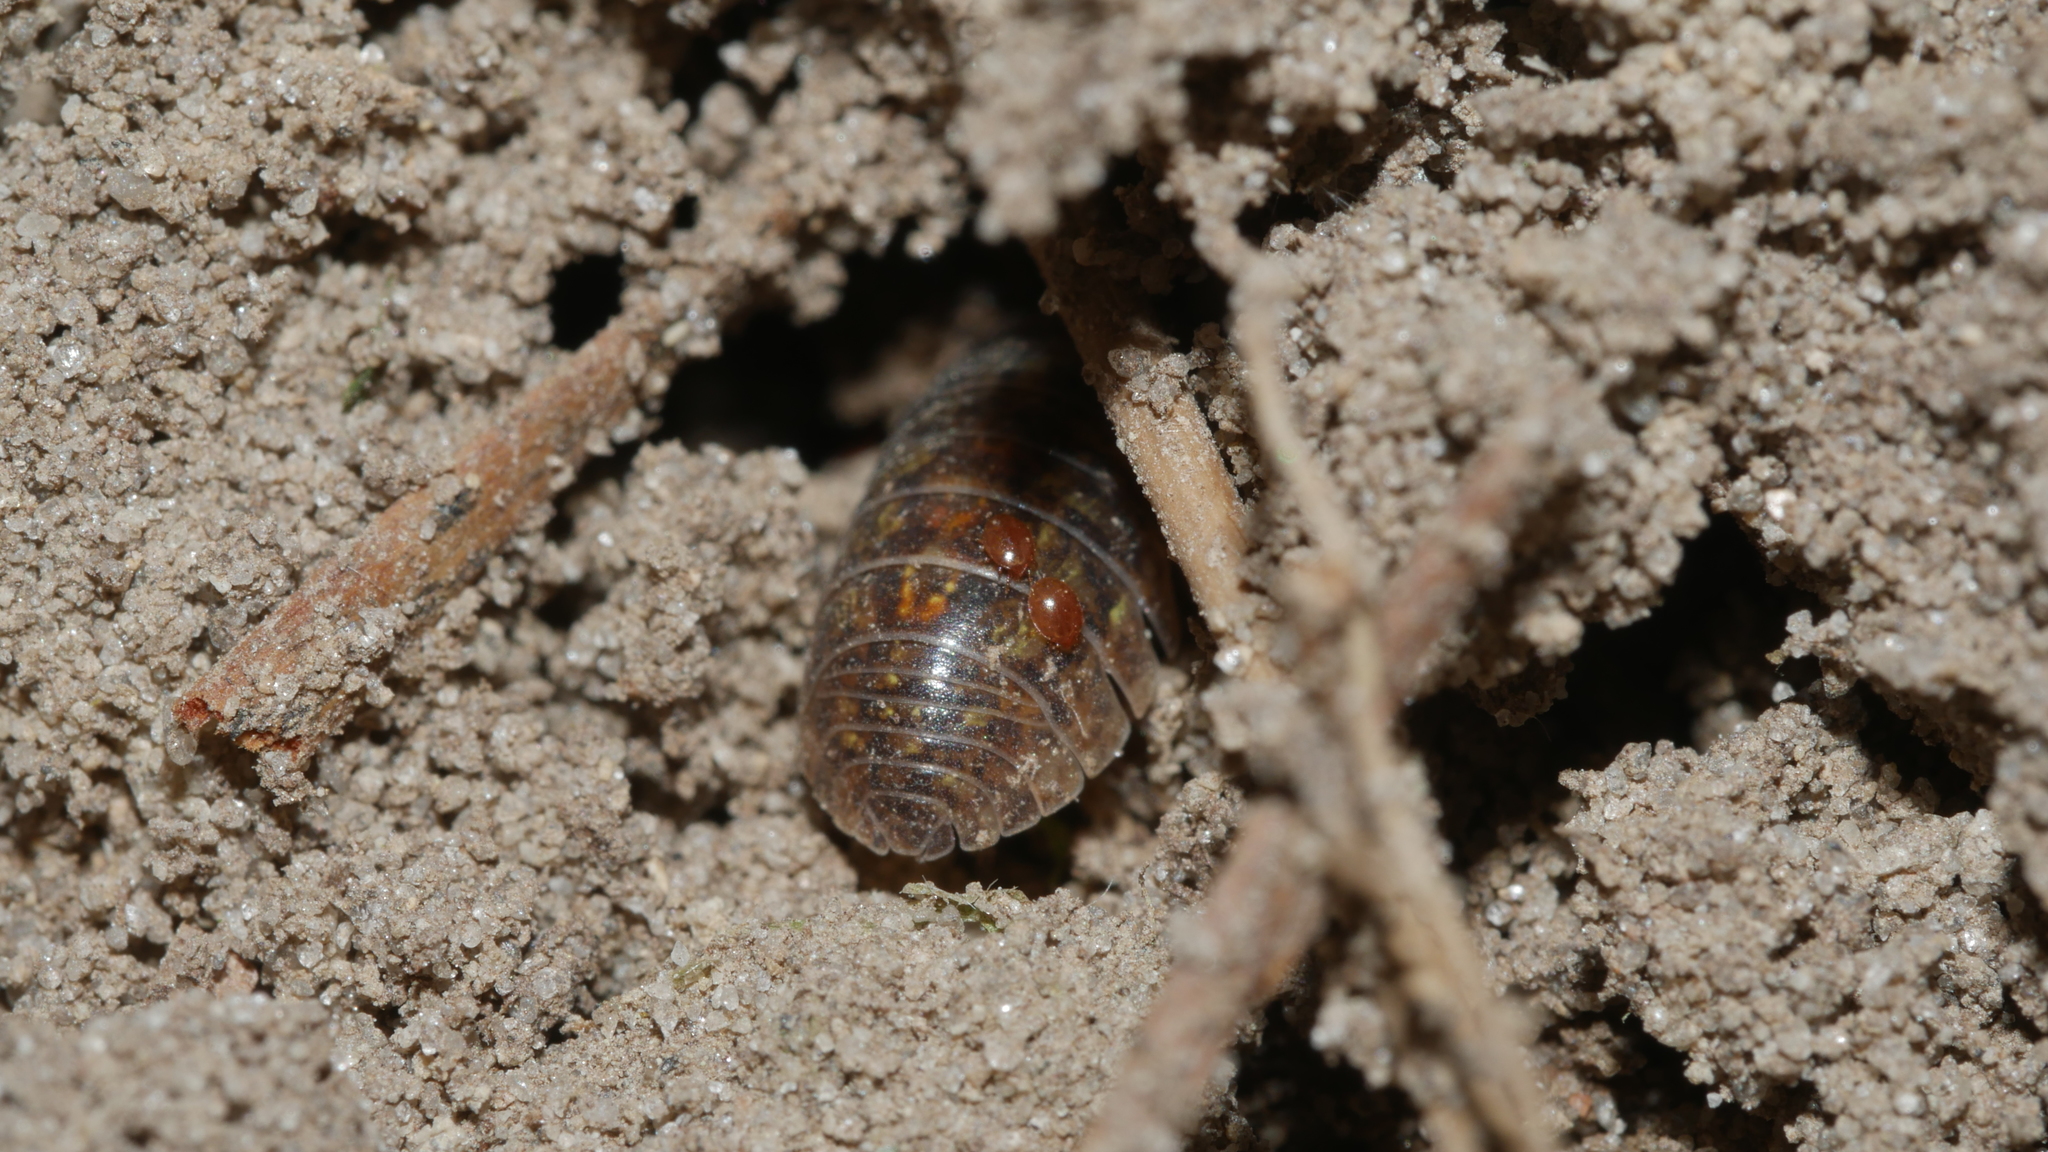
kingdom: Animalia
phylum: Arthropoda
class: Malacostraca
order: Isopoda
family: Armadillidiidae
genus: Armadillidium
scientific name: Armadillidium vulgare
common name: Common pill woodlouse
